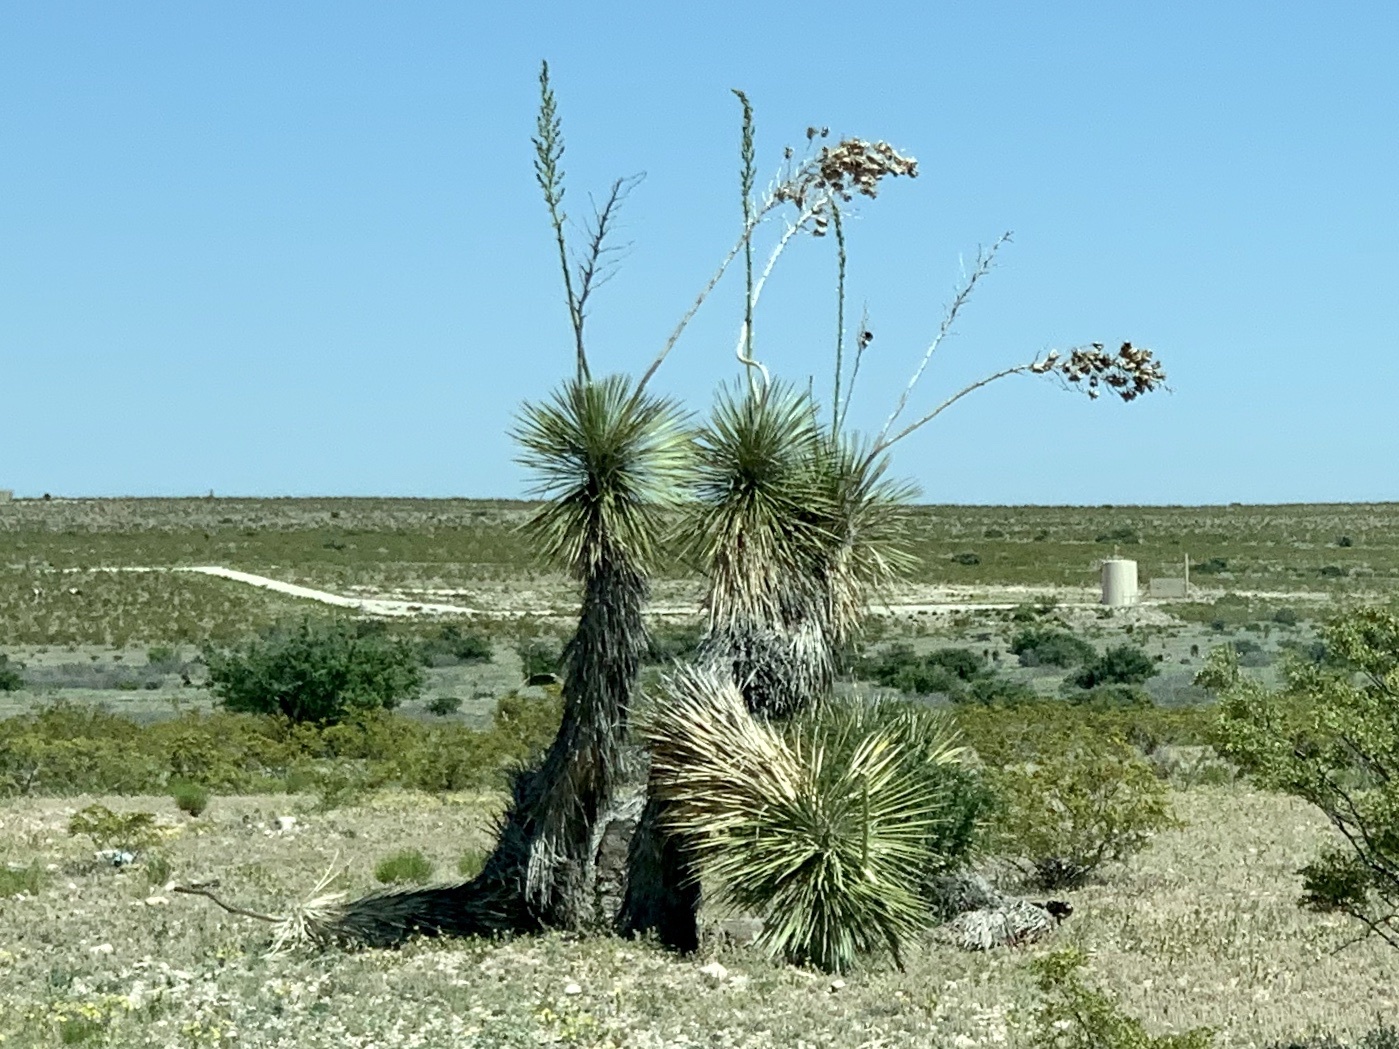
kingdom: Plantae
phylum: Tracheophyta
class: Liliopsida
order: Asparagales
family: Asparagaceae
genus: Yucca
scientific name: Yucca elata
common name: Palmella
